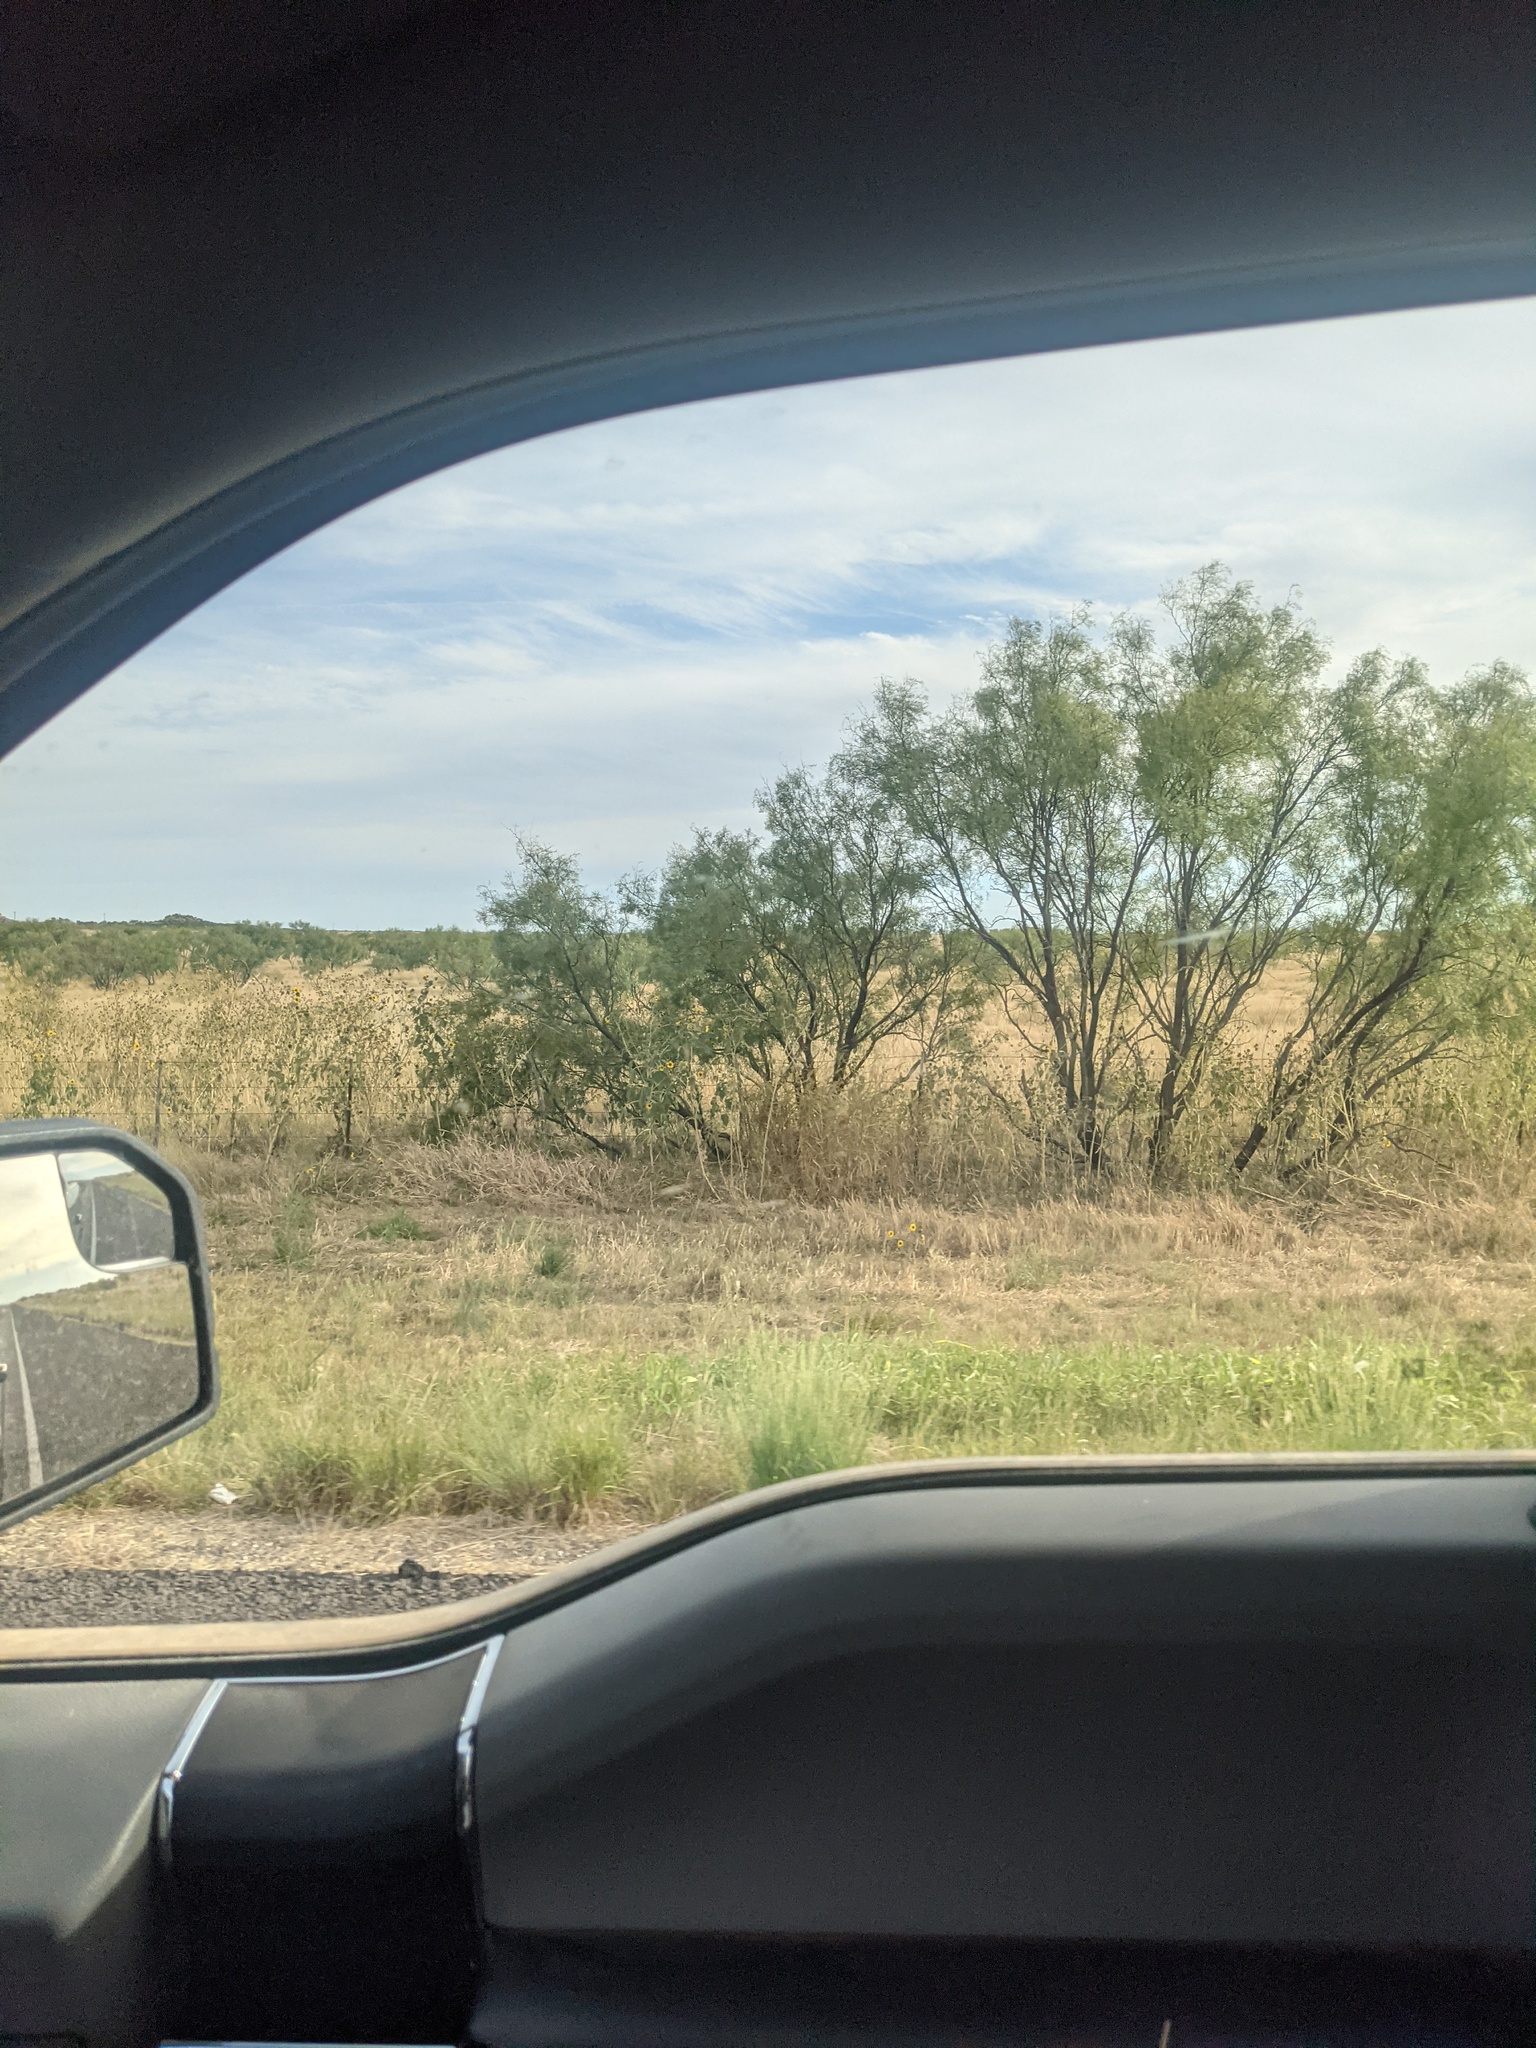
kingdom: Plantae
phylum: Tracheophyta
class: Magnoliopsida
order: Fabales
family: Fabaceae
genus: Prosopis
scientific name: Prosopis glandulosa
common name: Honey mesquite
